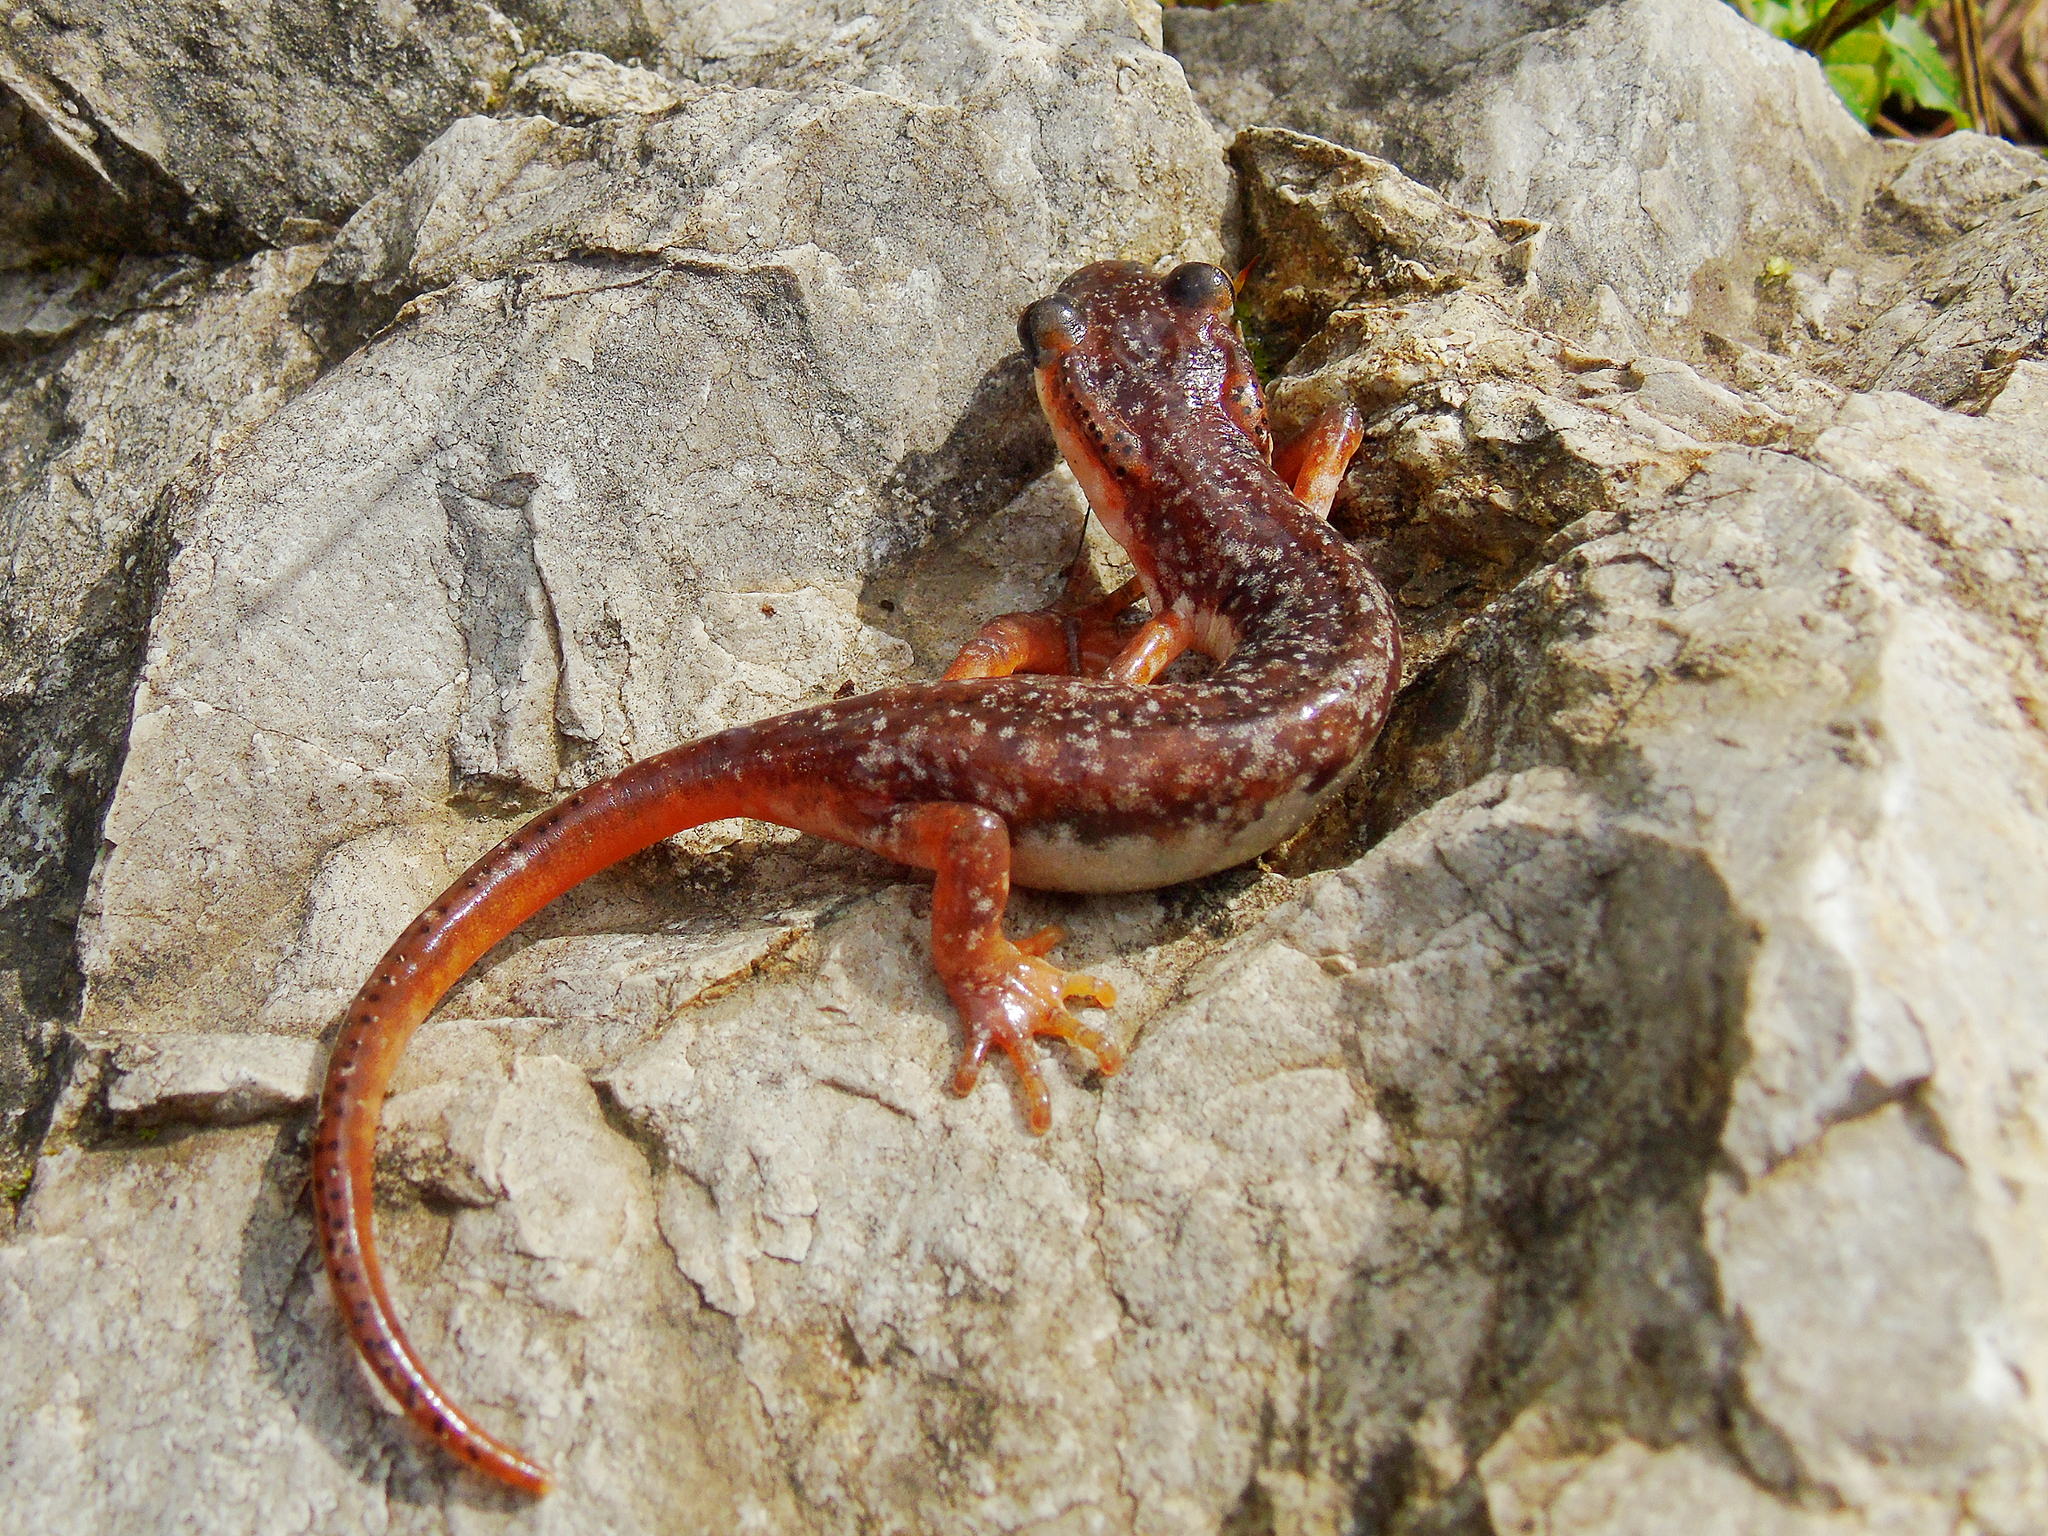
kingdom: Animalia
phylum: Chordata
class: Amphibia
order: Caudata
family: Salamandridae
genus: Lyciasalamandra
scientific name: Lyciasalamandra billae
